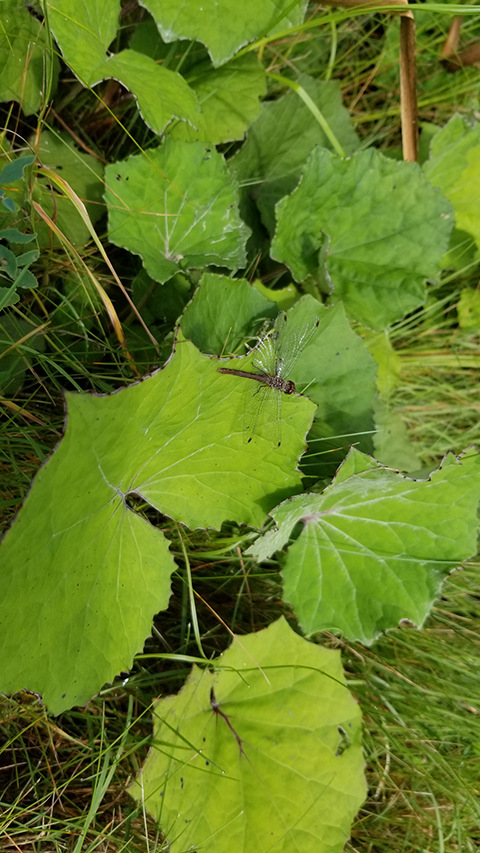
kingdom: Plantae
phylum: Tracheophyta
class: Magnoliopsida
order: Asterales
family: Asteraceae
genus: Tussilago
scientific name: Tussilago farfara
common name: Coltsfoot
